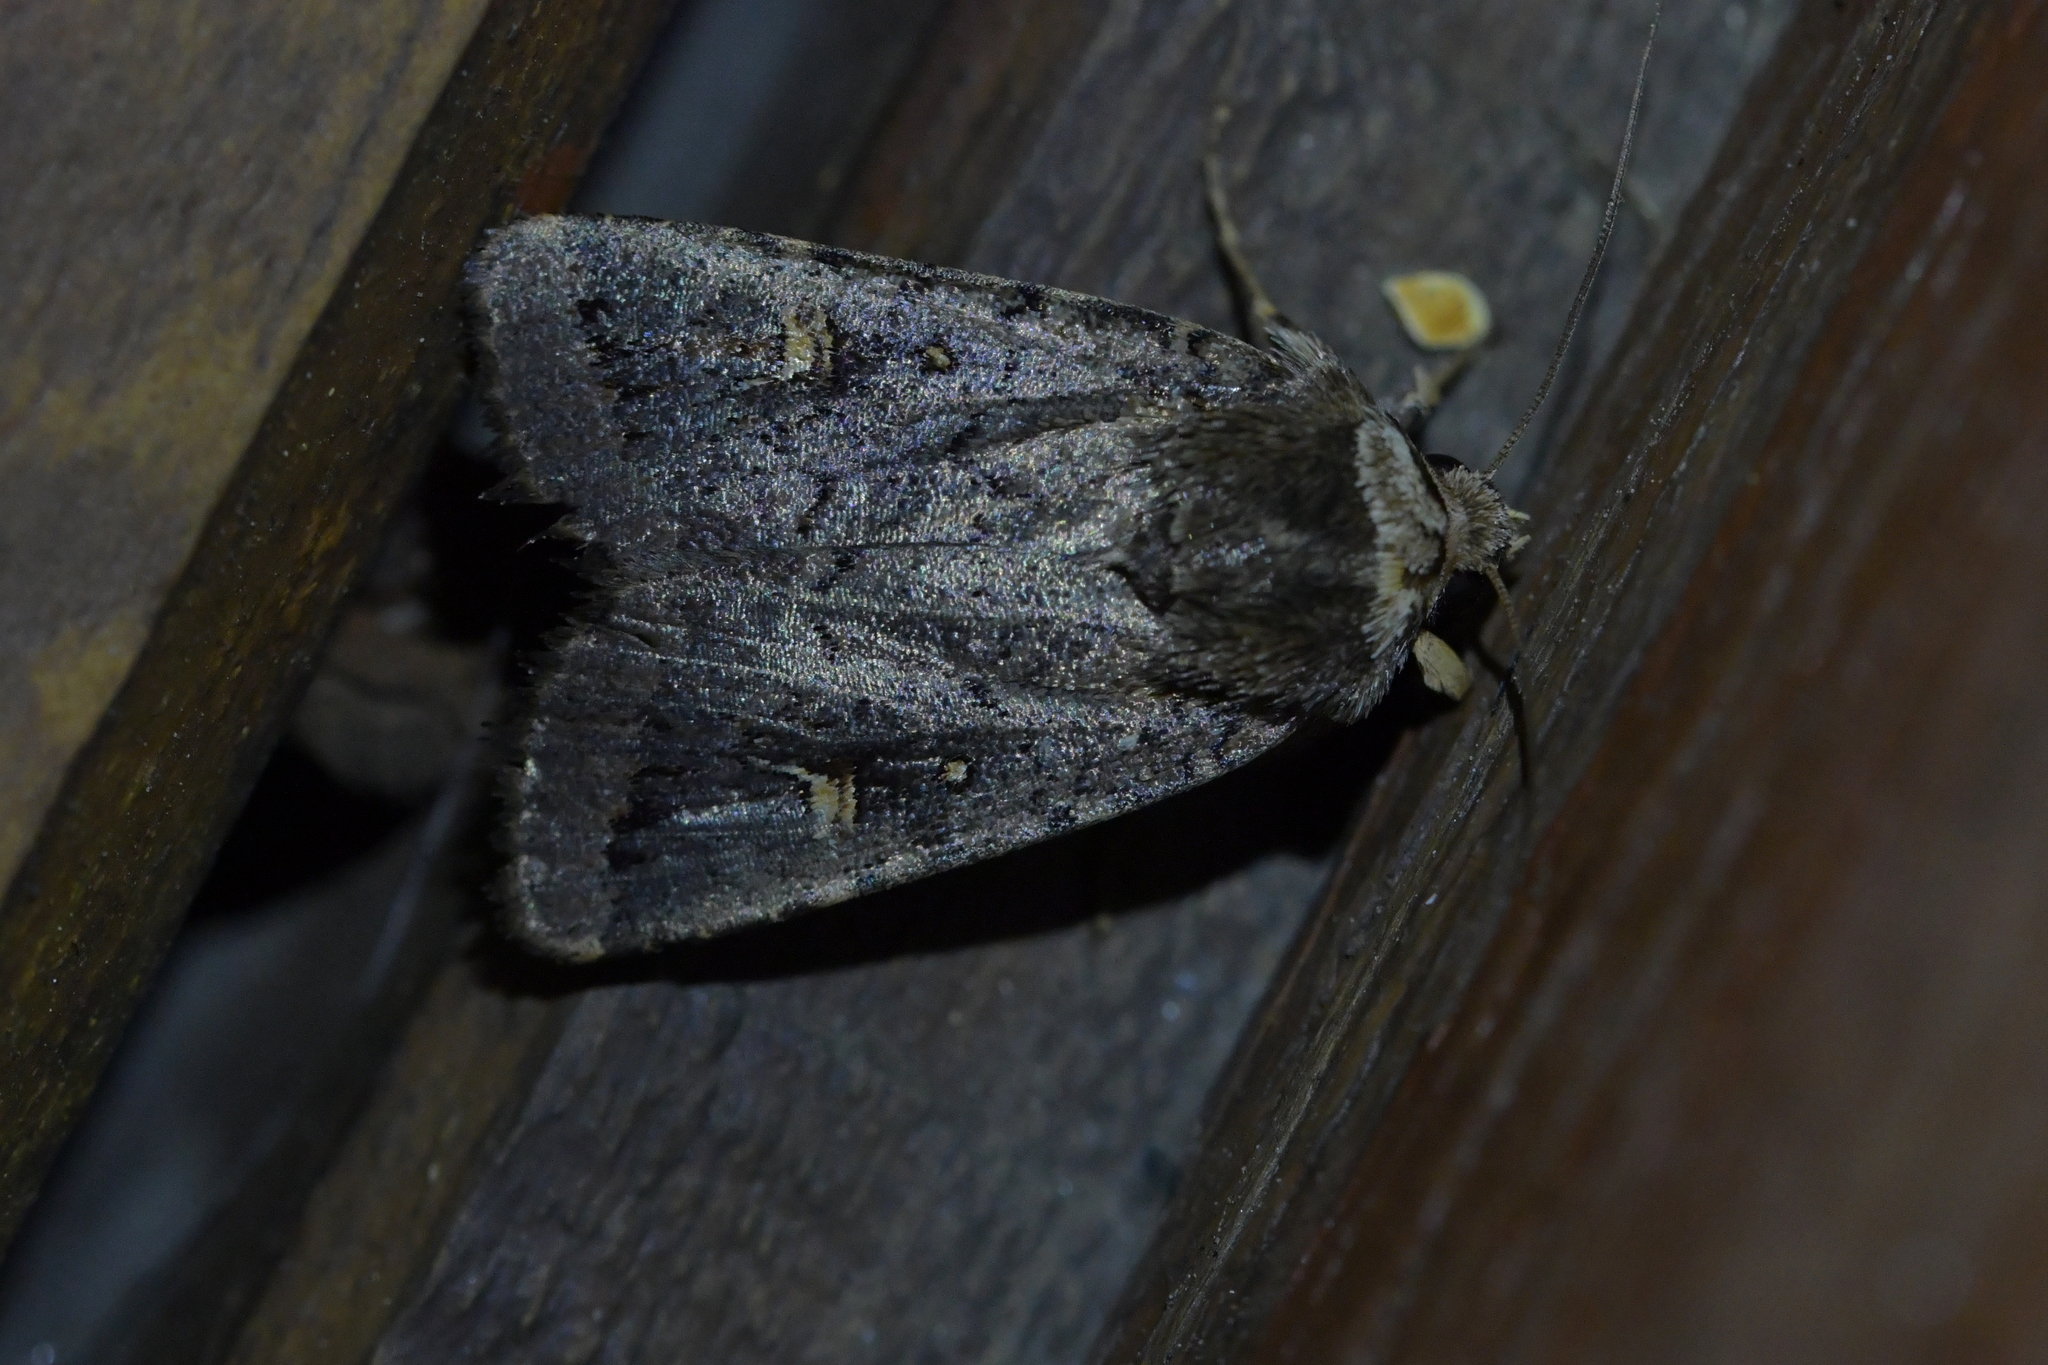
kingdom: Animalia
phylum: Arthropoda
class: Insecta
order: Lepidoptera
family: Noctuidae
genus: Proteuxoa
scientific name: Proteuxoa tetronycha
